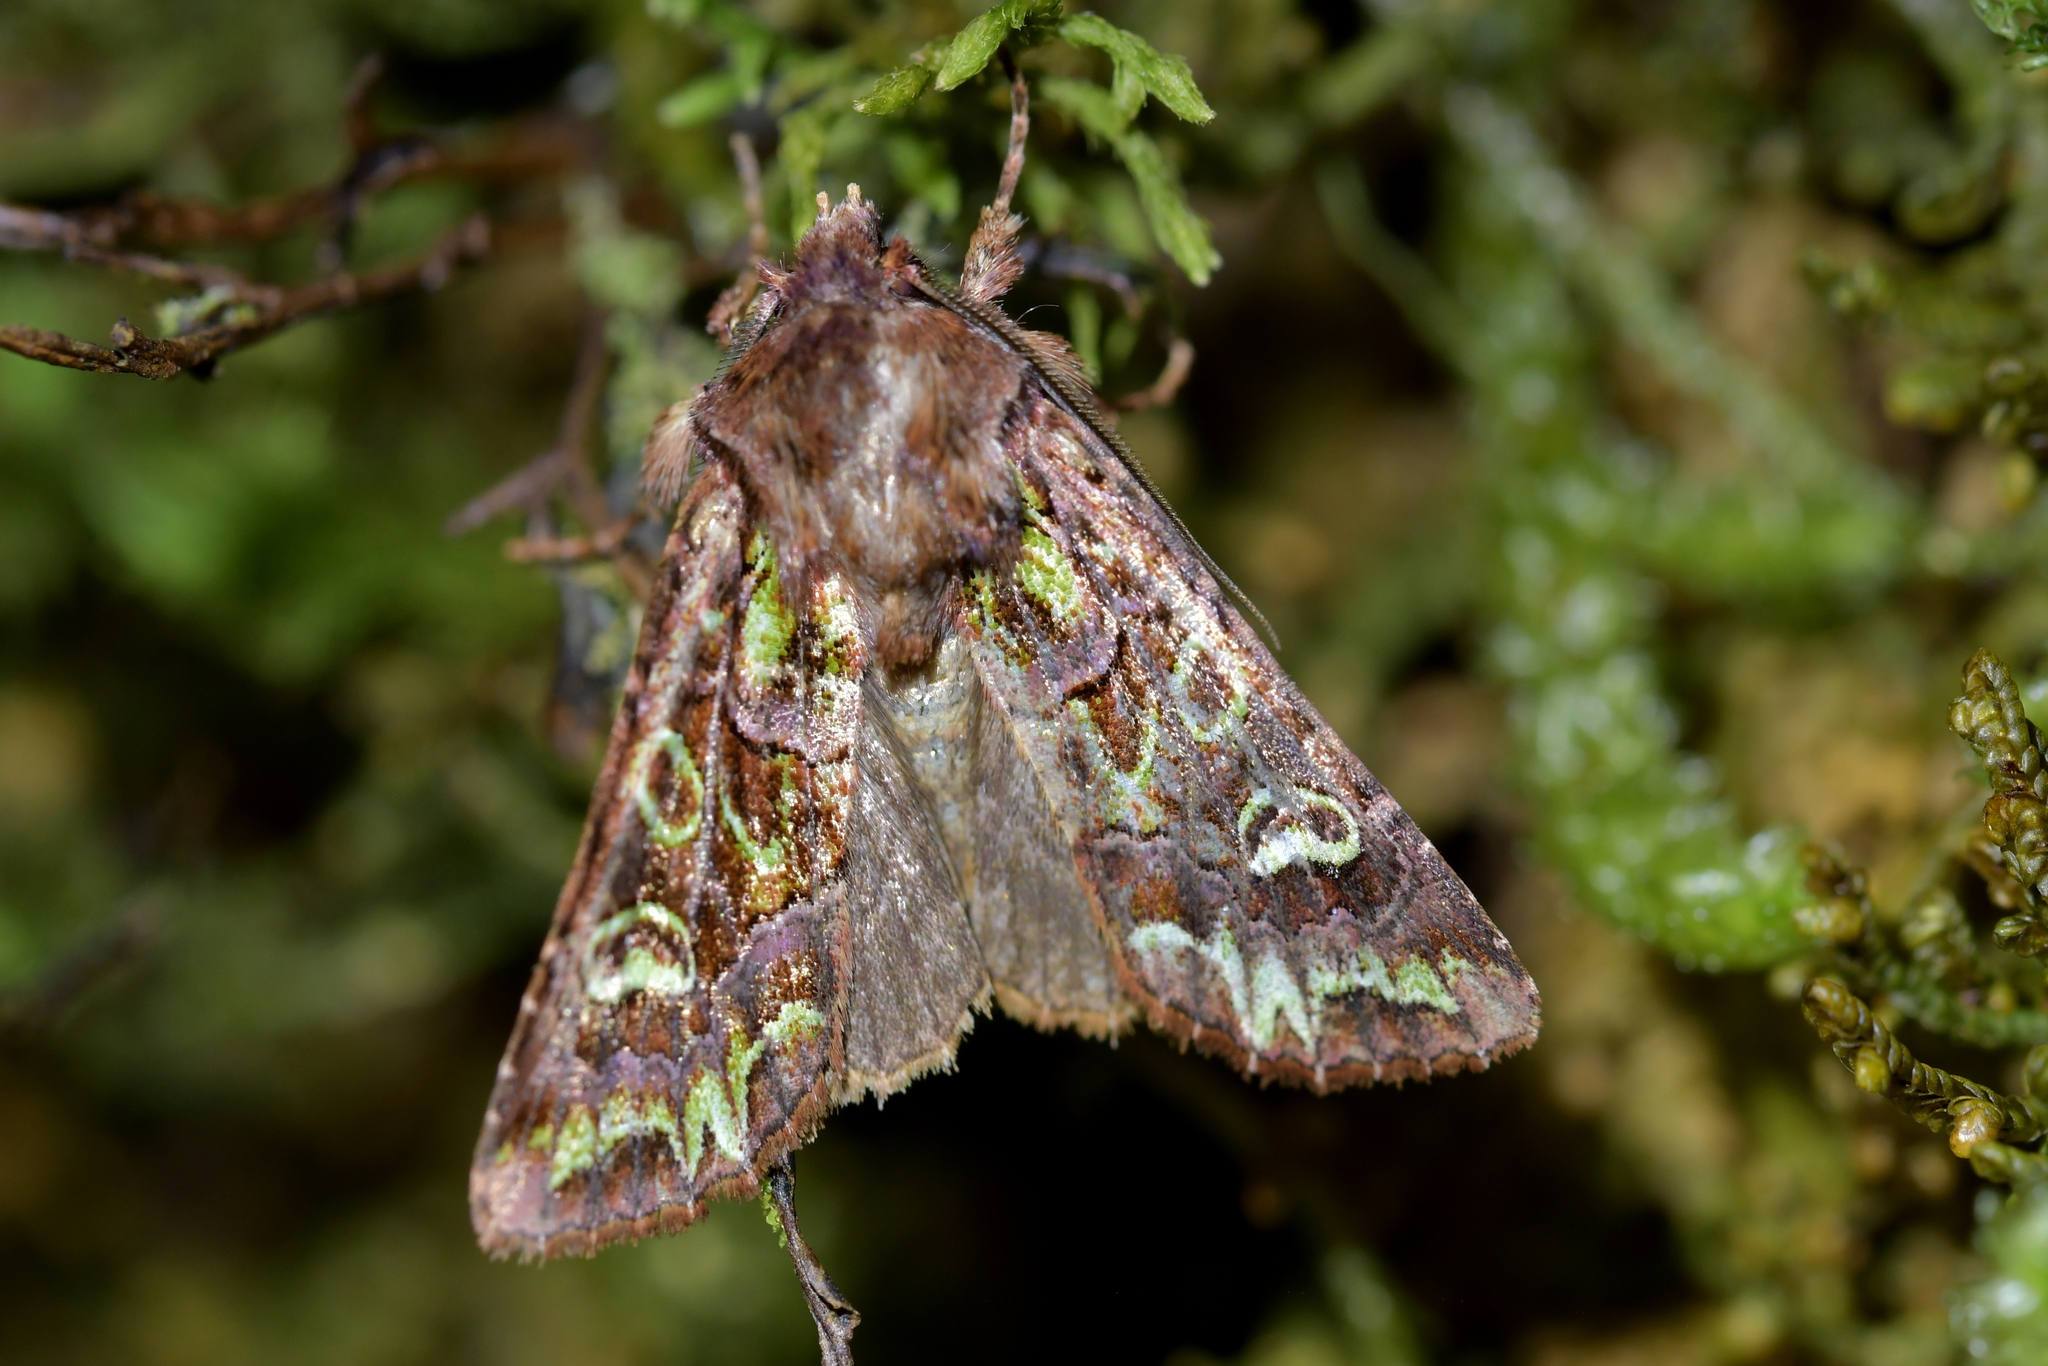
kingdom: Animalia
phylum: Arthropoda
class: Insecta
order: Lepidoptera
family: Noctuidae
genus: Ichneutica
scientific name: Ichneutica chlorodonta
